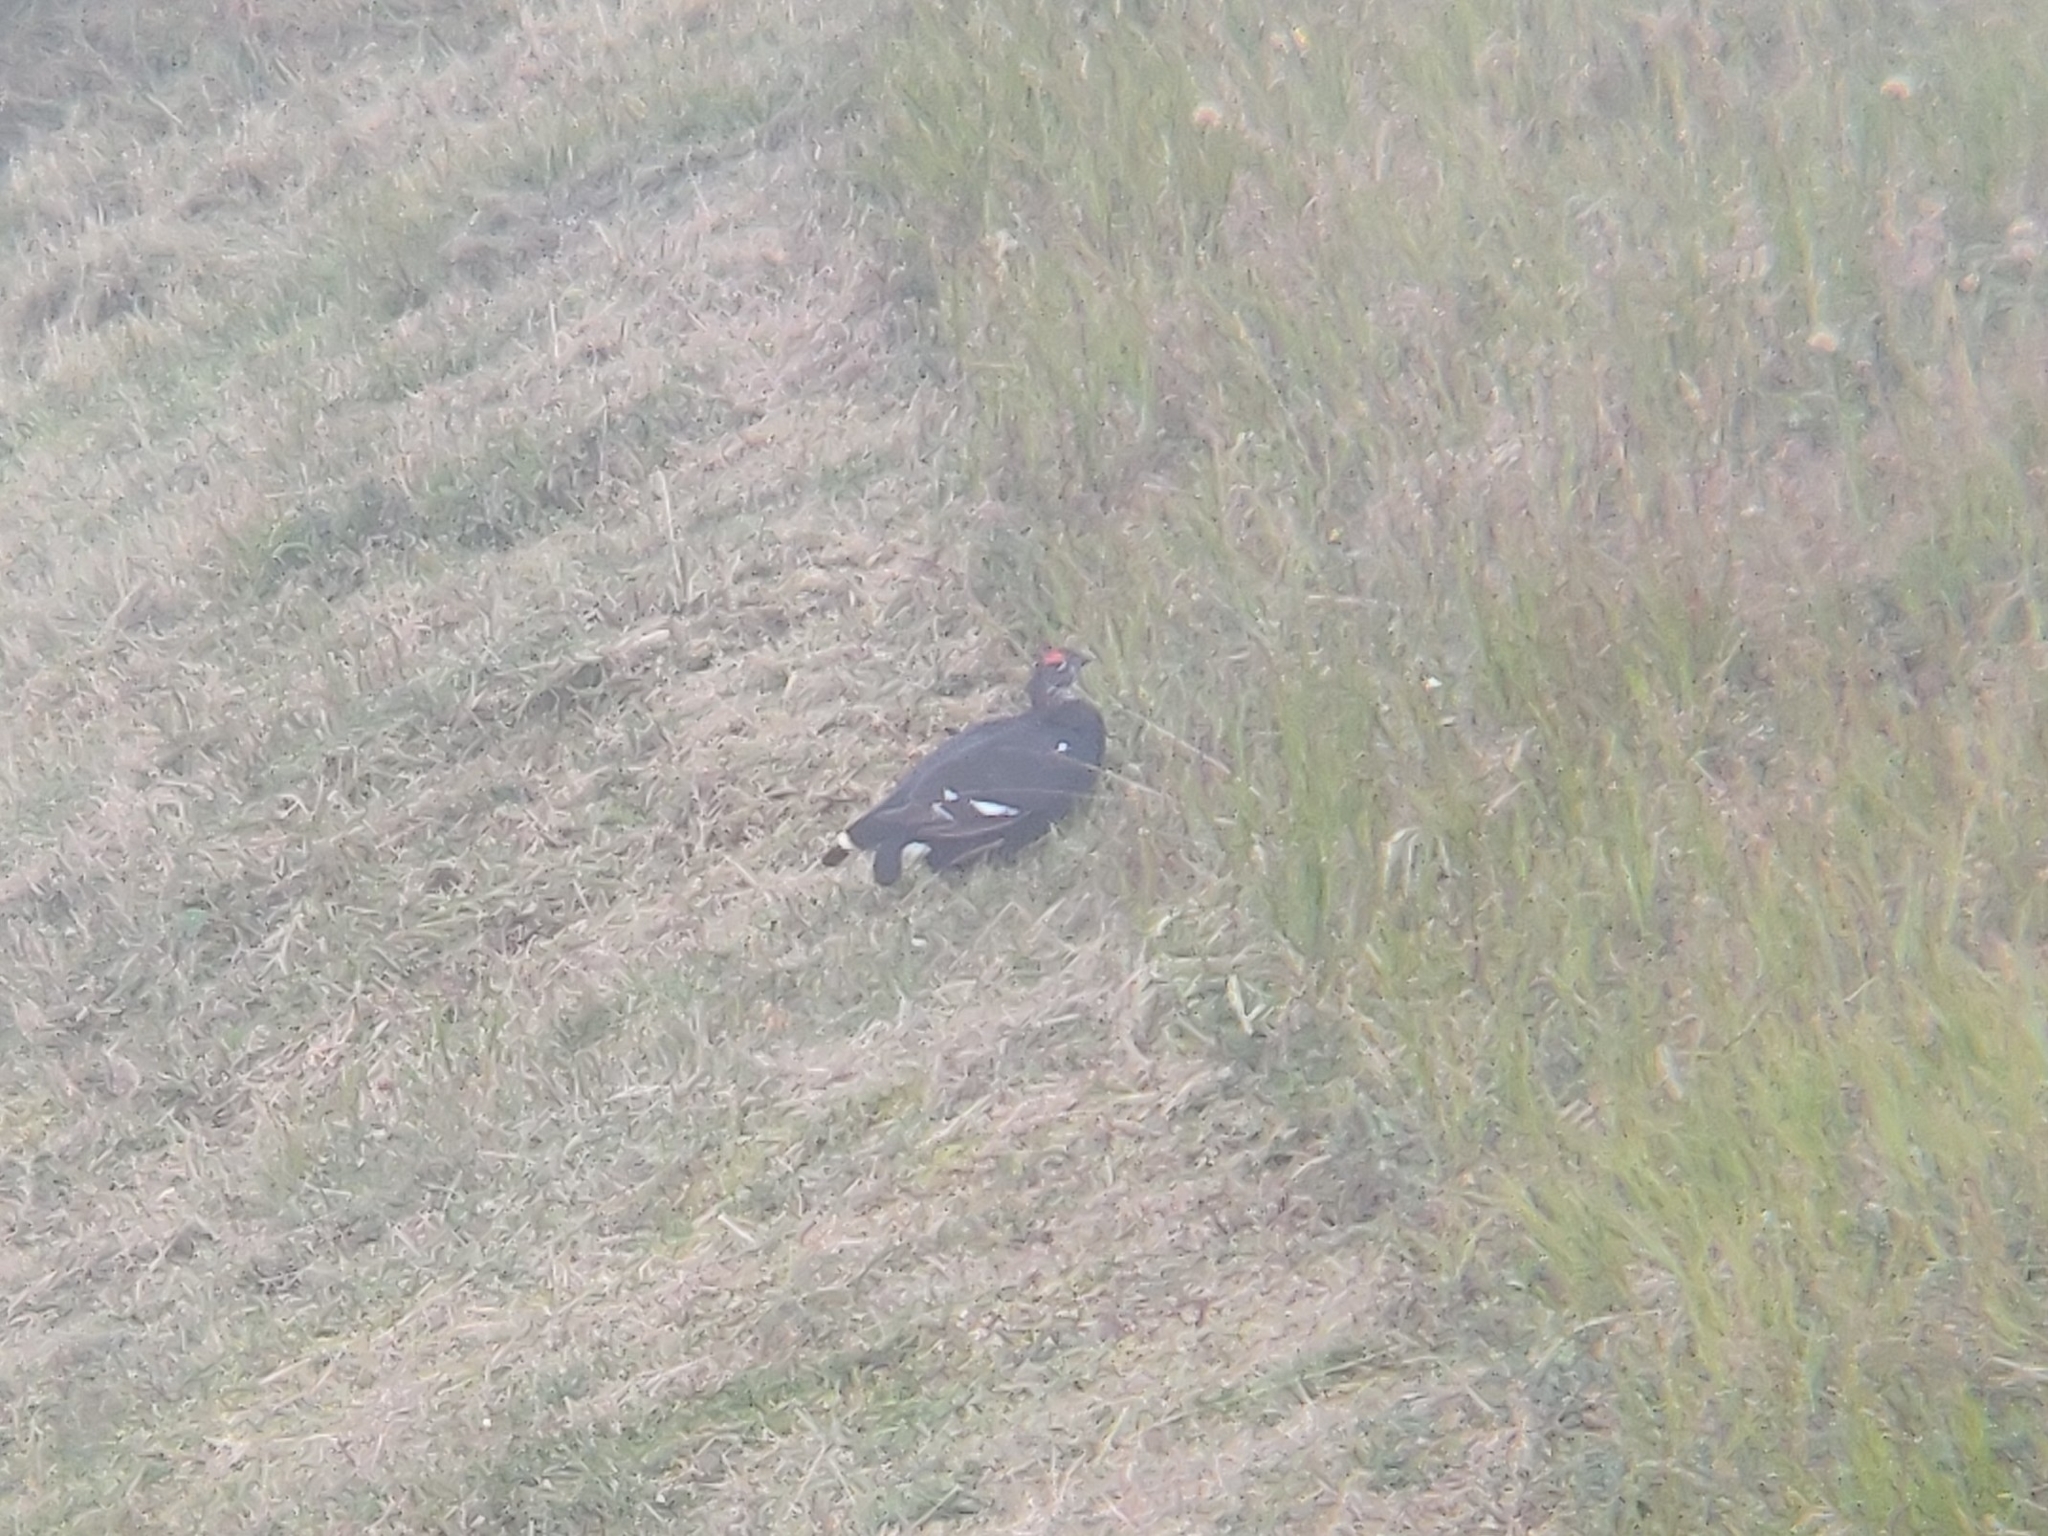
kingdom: Animalia
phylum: Chordata
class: Aves
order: Galliformes
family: Phasianidae
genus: Lyrurus
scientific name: Lyrurus tetrix
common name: Black grouse
